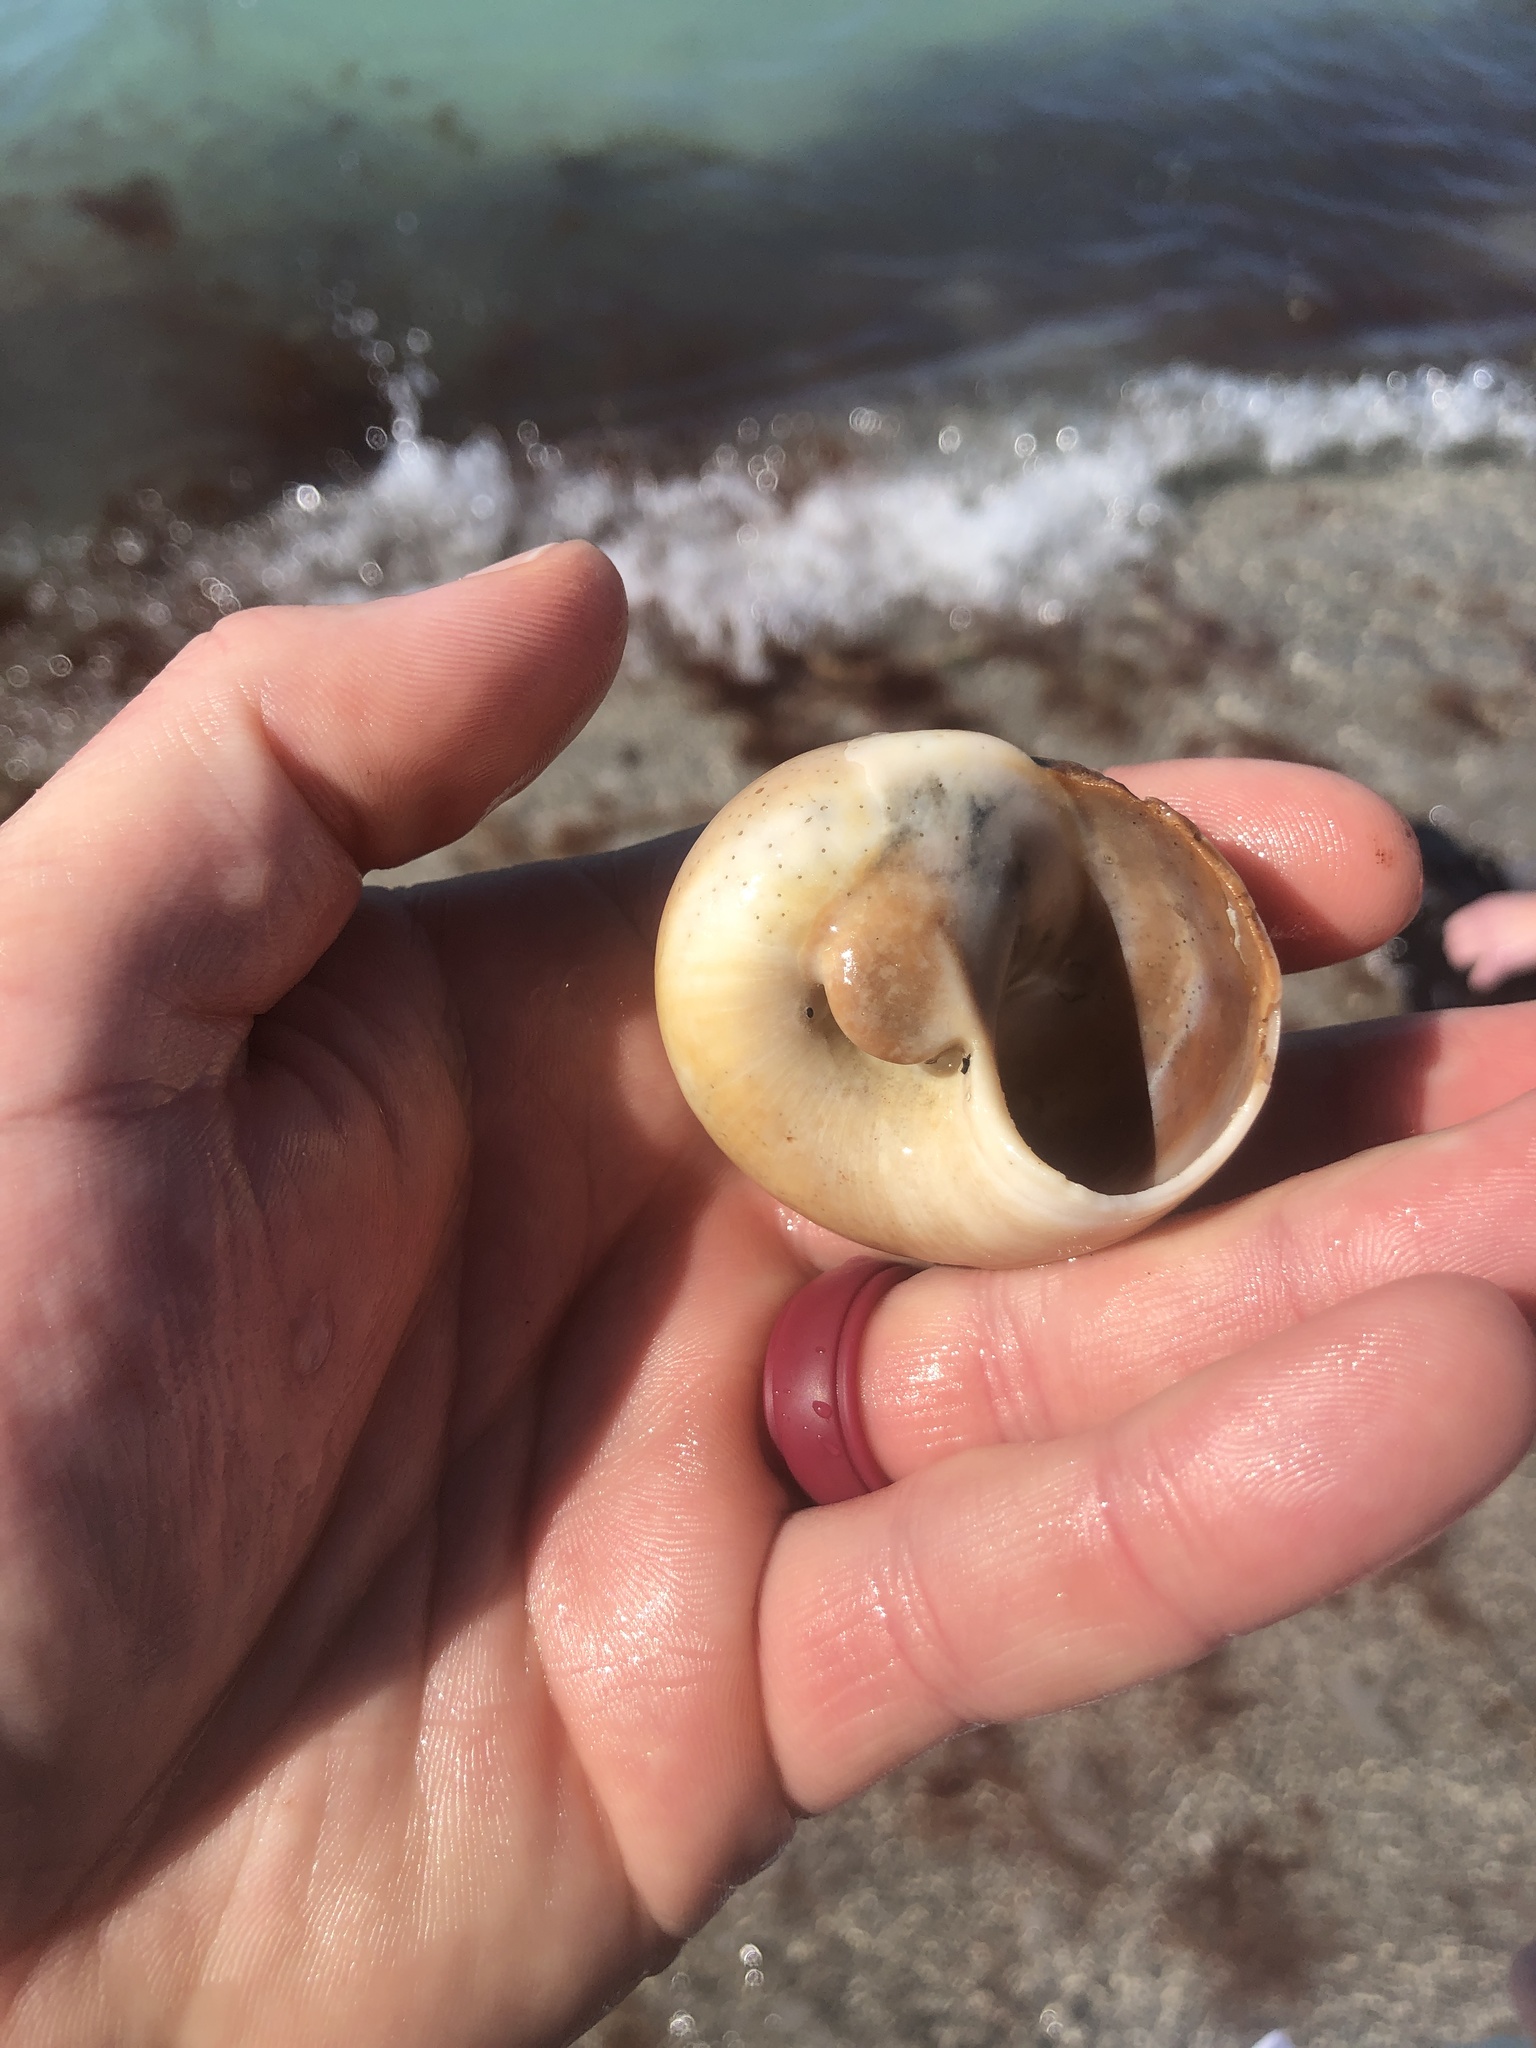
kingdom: Animalia
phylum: Mollusca
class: Gastropoda
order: Littorinimorpha
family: Naticidae
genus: Neverita
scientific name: Neverita duplicata
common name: Lobed moonsnail
